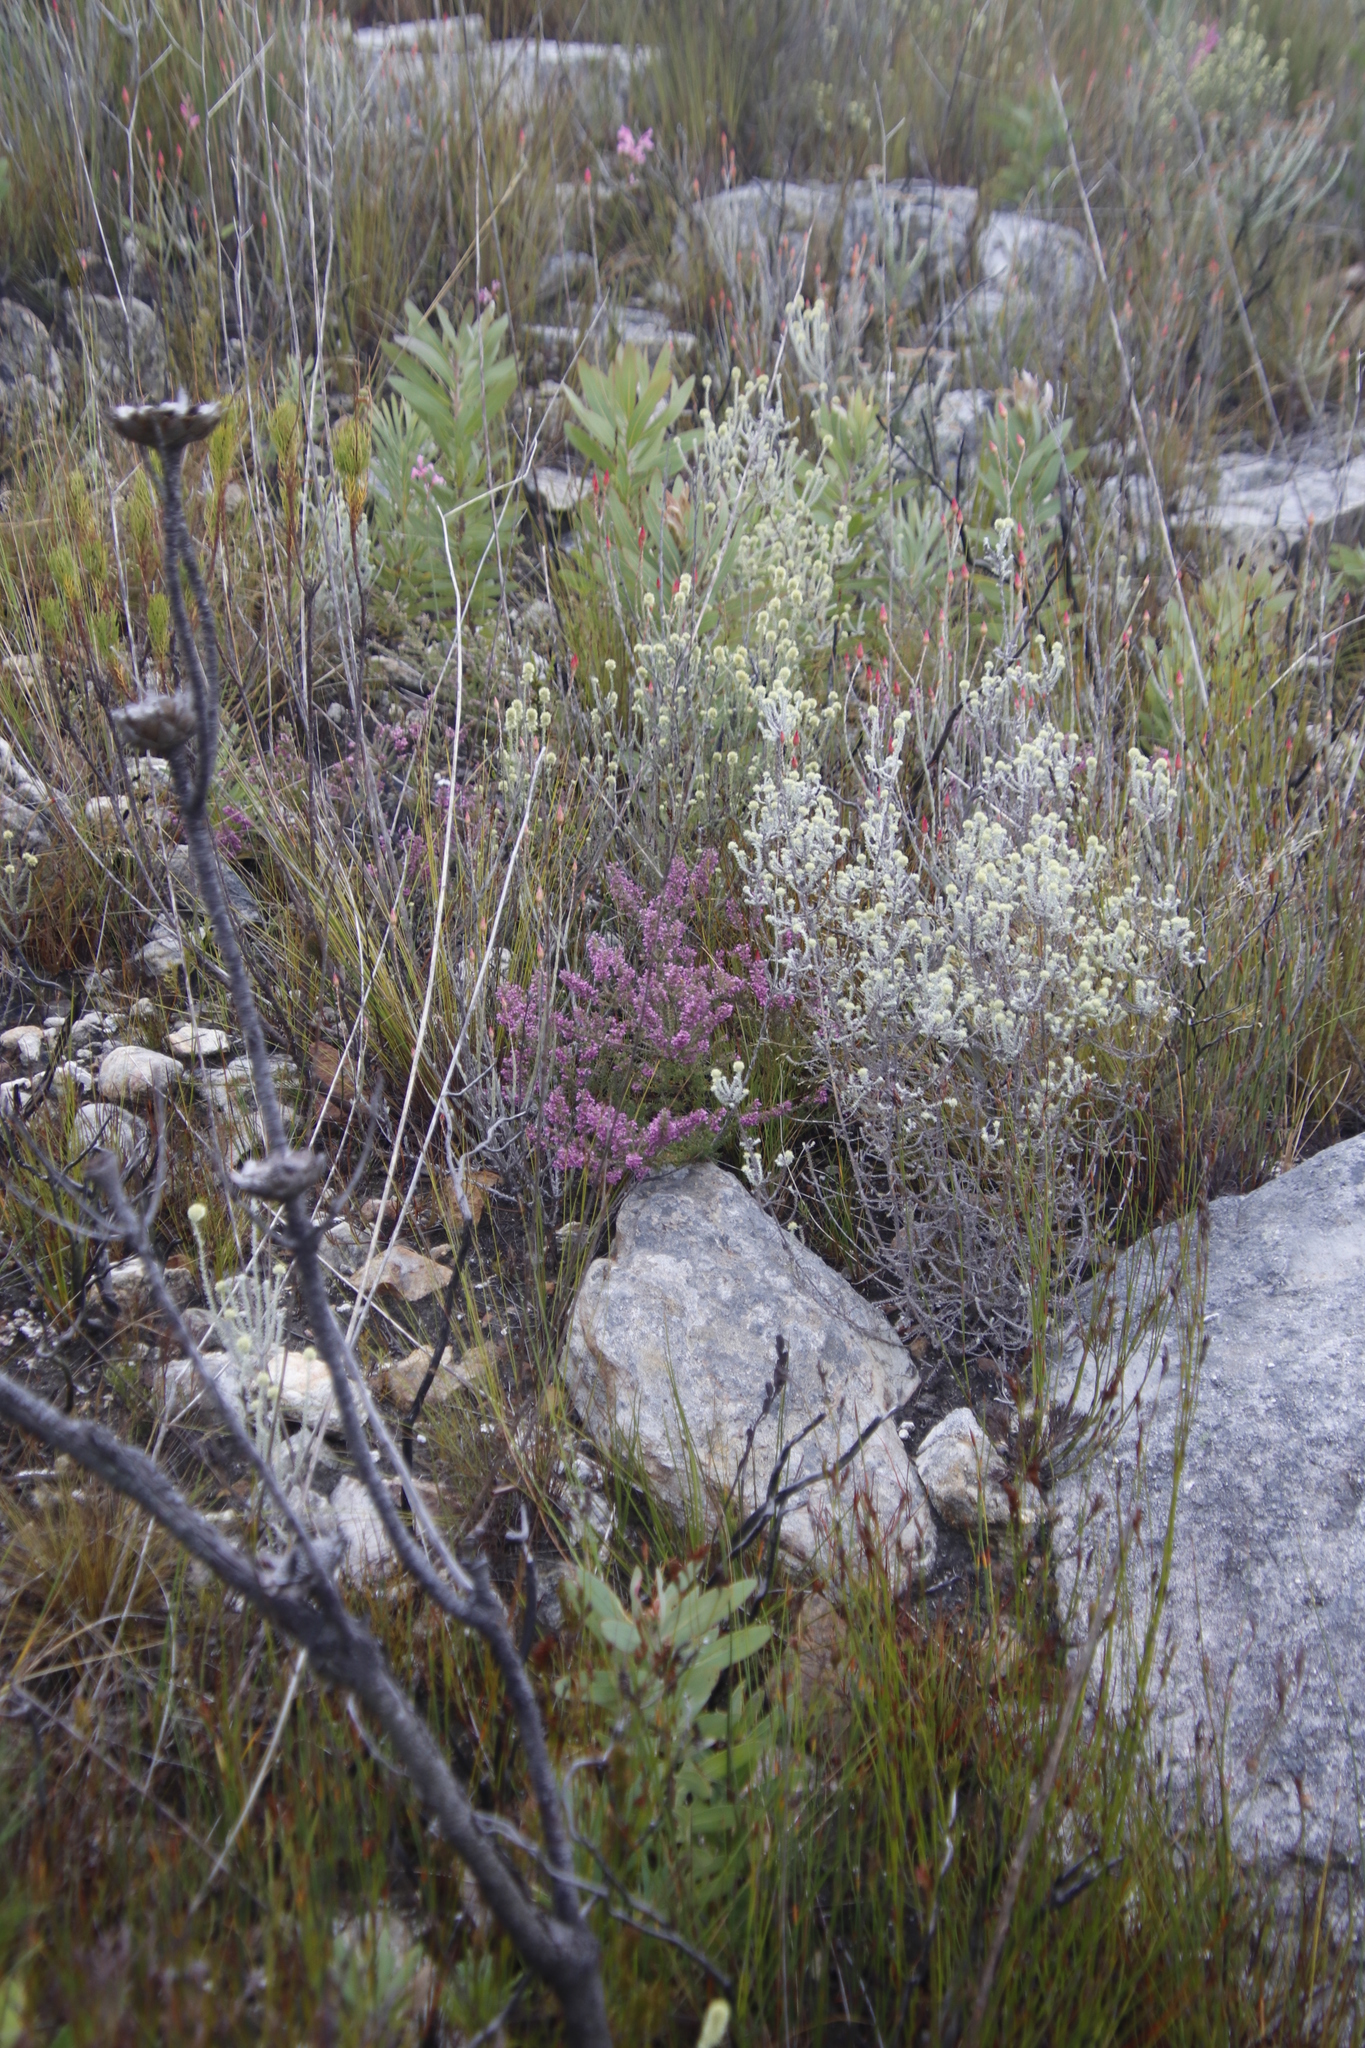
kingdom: Plantae
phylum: Tracheophyta
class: Magnoliopsida
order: Proteales
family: Proteaceae
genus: Protea
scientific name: Protea laurifolia
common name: Grey-leaf sugarbsh
